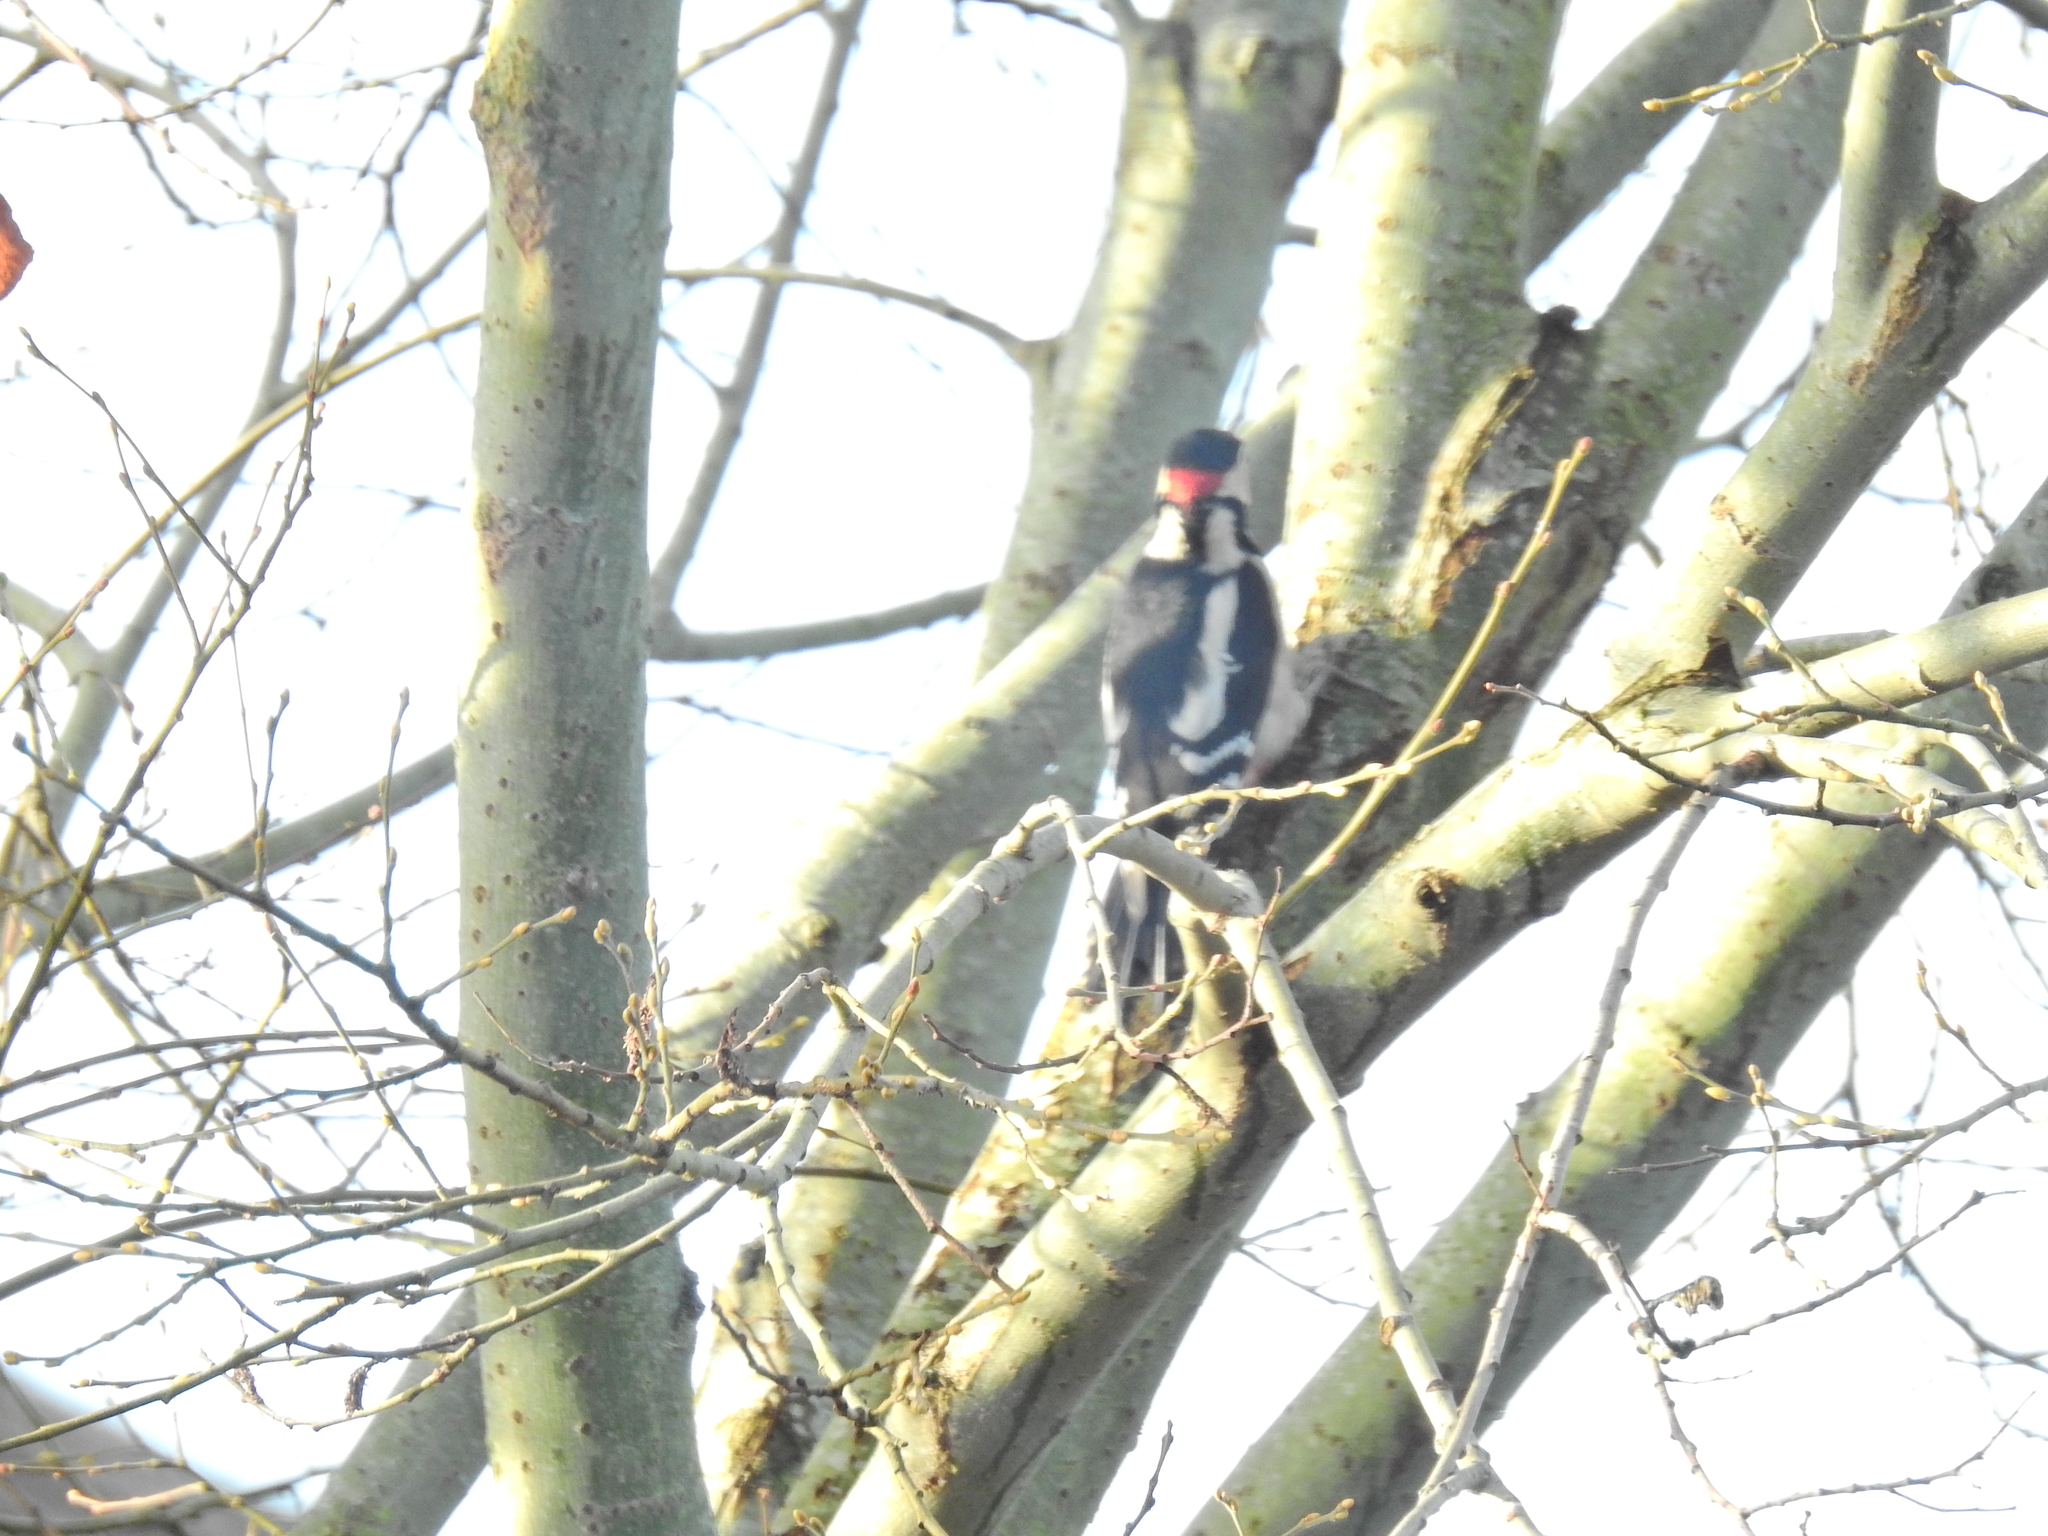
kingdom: Animalia
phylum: Chordata
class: Aves
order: Piciformes
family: Picidae
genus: Dendrocopos
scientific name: Dendrocopos major
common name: Great spotted woodpecker
